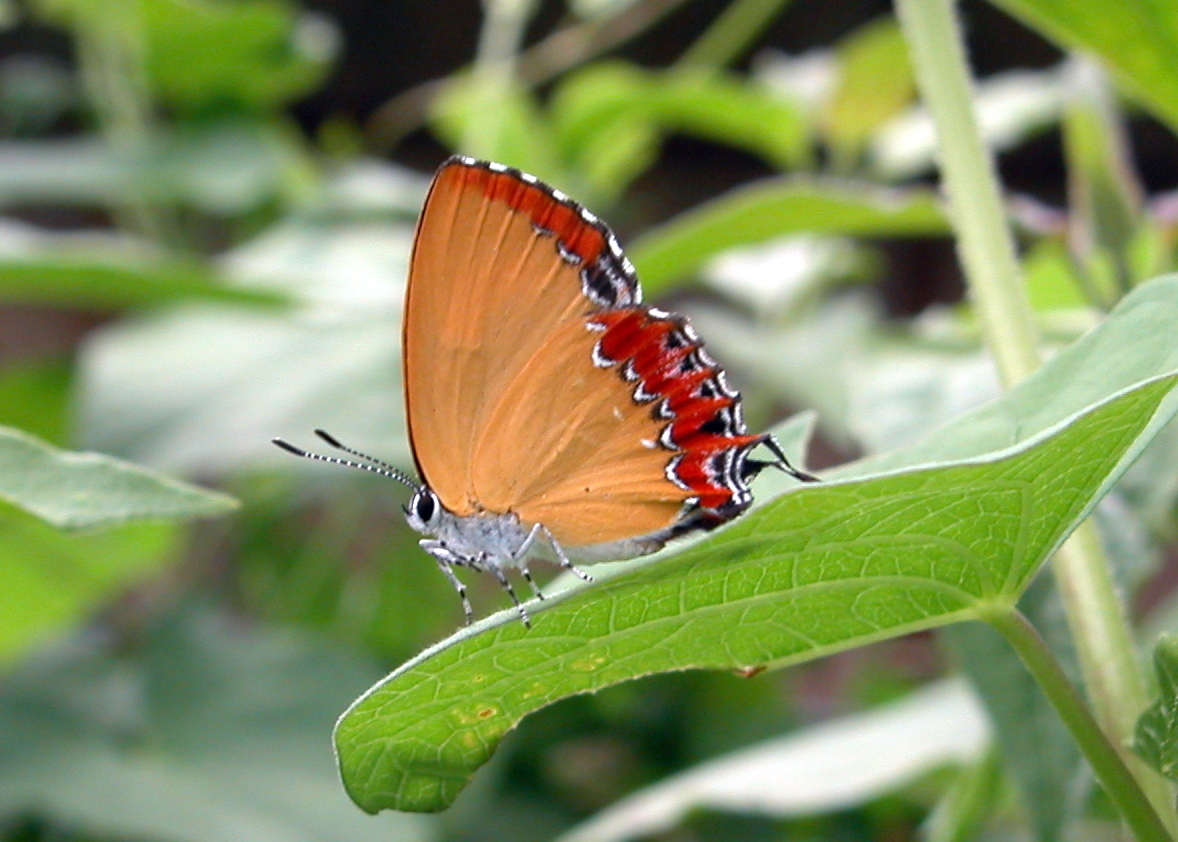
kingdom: Animalia
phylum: Arthropoda
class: Insecta
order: Lepidoptera
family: Lycaenidae
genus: Heliophorus
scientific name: Heliophorus epicles
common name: Purple sapphire
